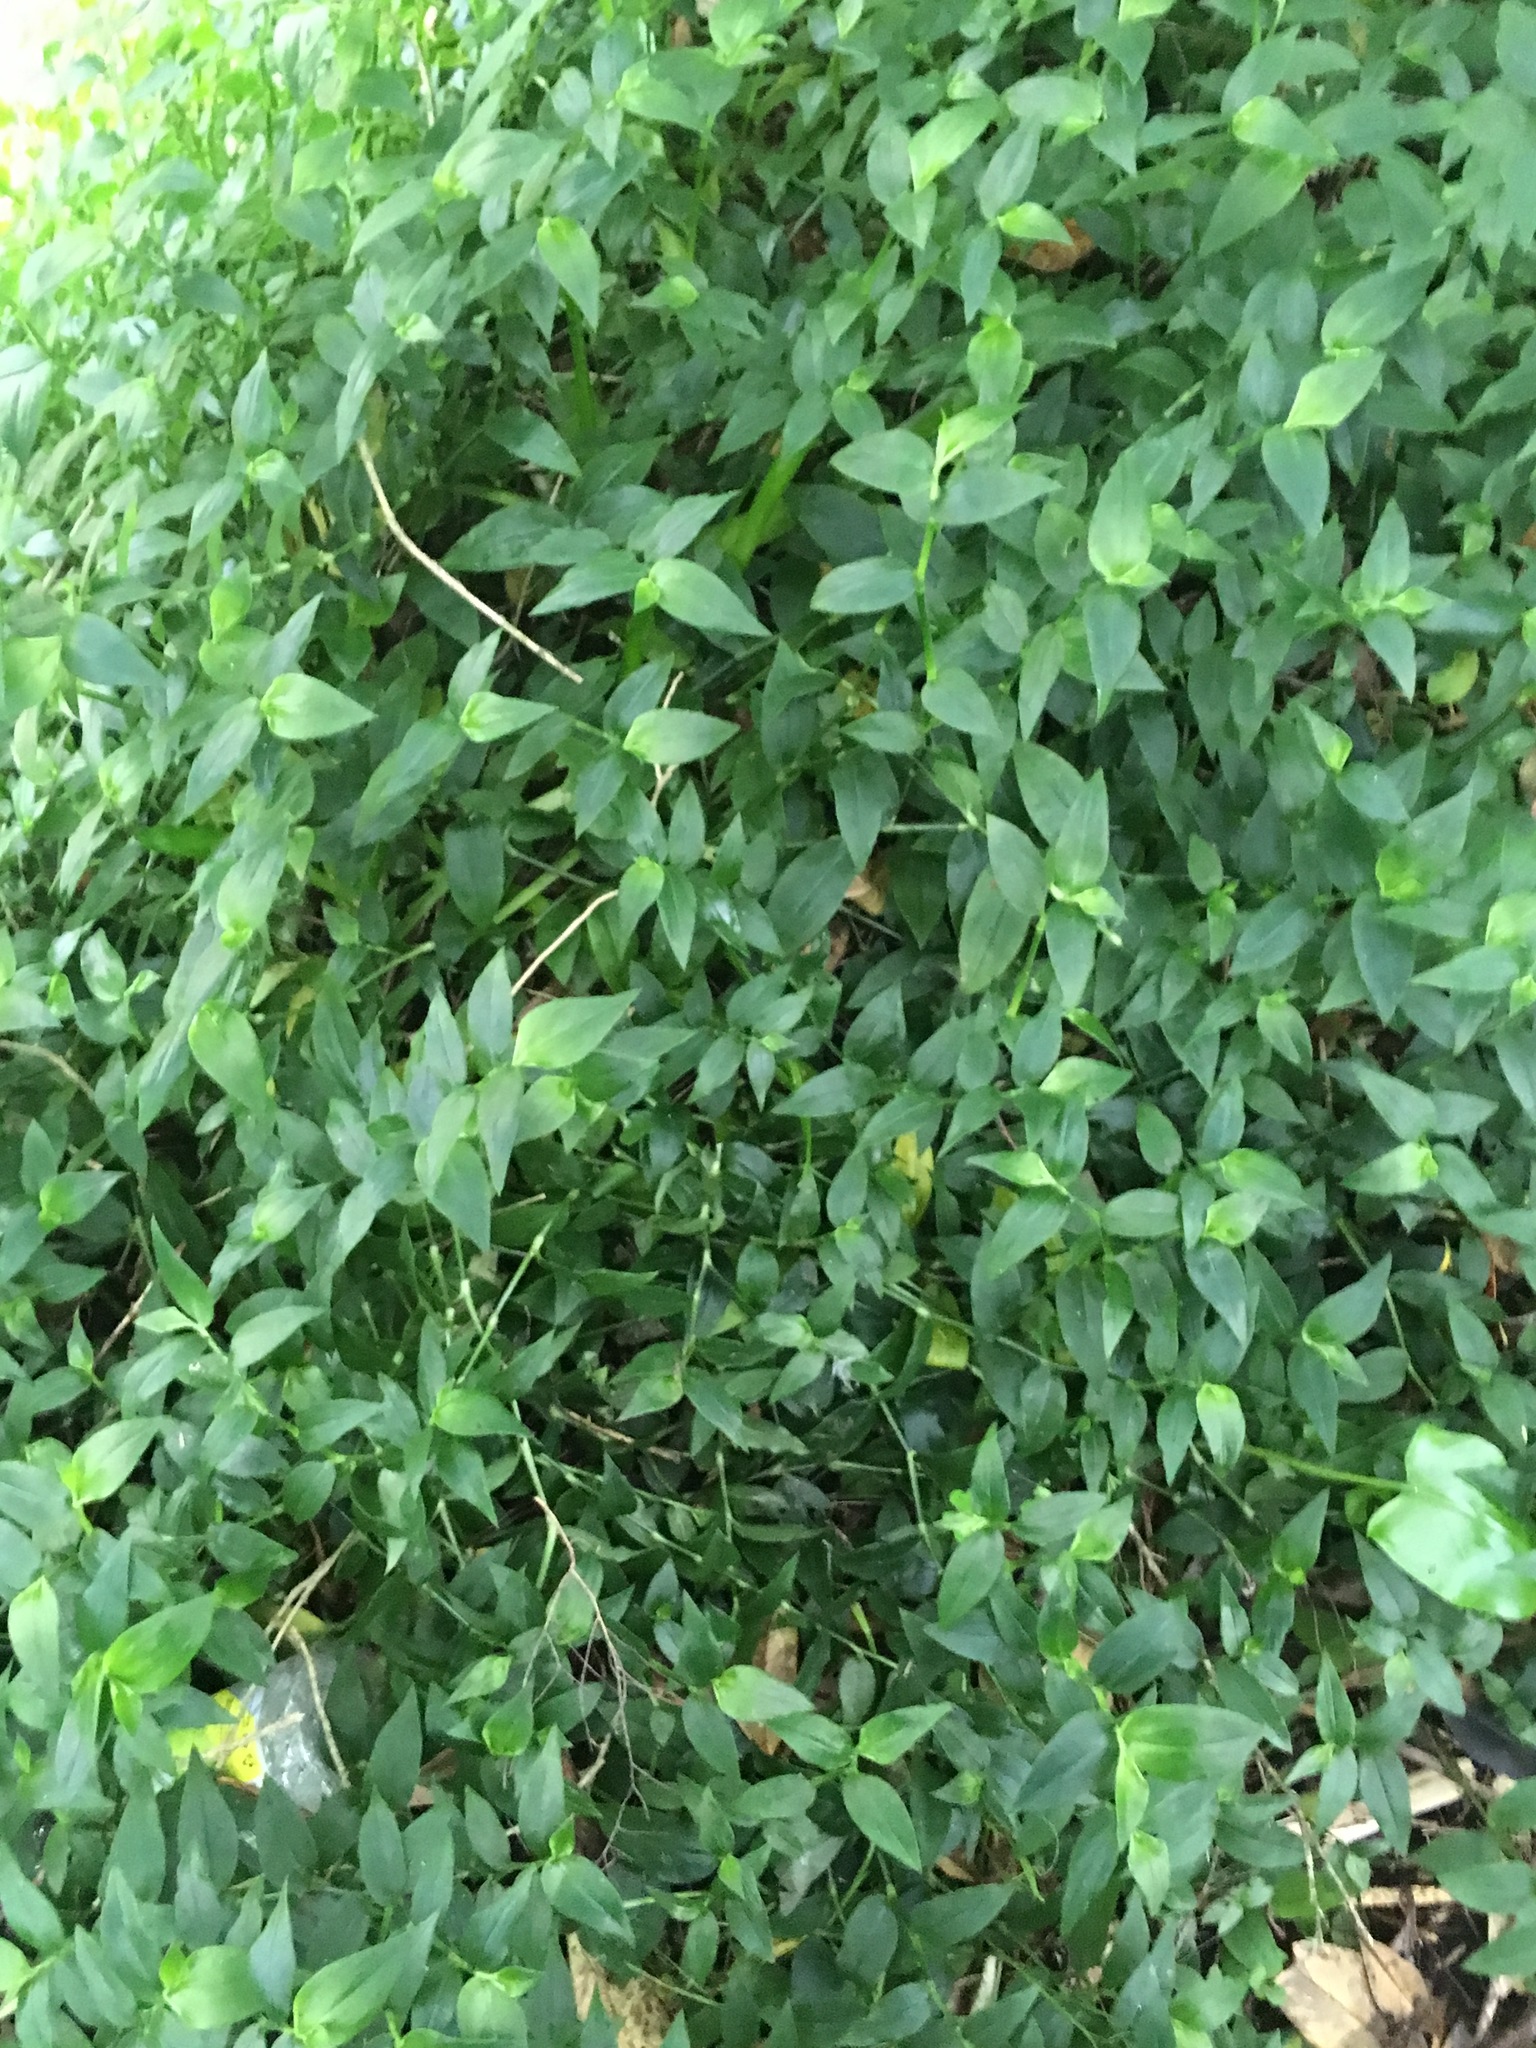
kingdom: Plantae
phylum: Tracheophyta
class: Liliopsida
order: Commelinales
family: Commelinaceae
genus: Tradescantia
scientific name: Tradescantia fluminensis
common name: Wandering-jew
